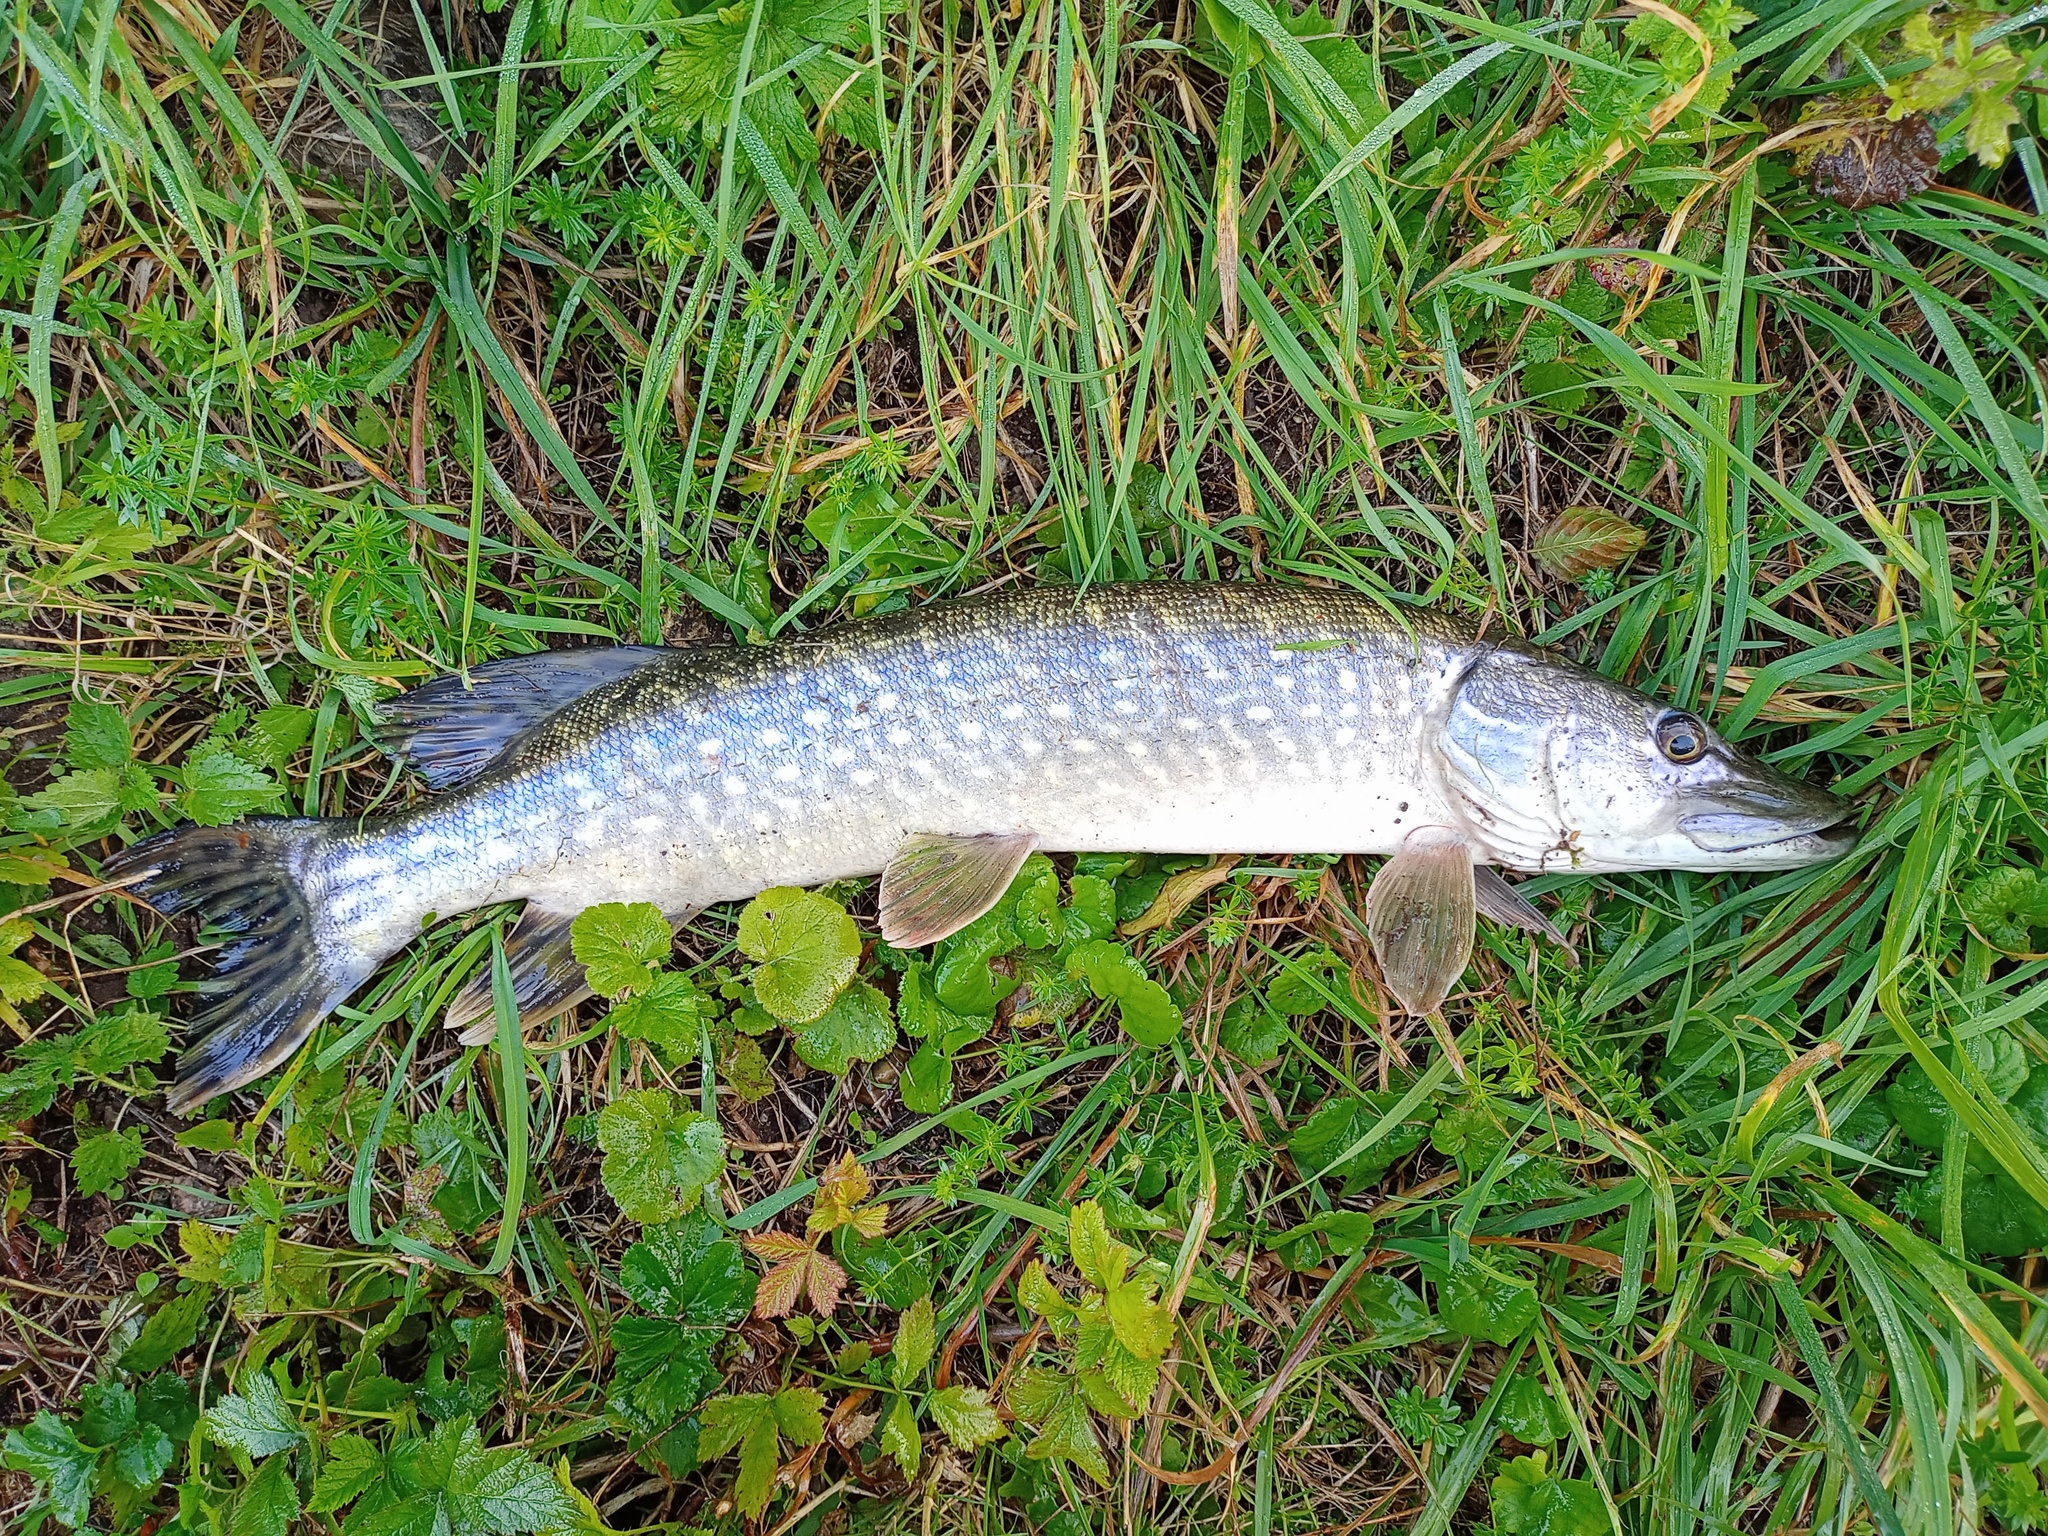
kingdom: Animalia
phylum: Chordata
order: Esociformes
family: Esocidae
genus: Esox
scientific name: Esox lucius
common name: Northern pike
